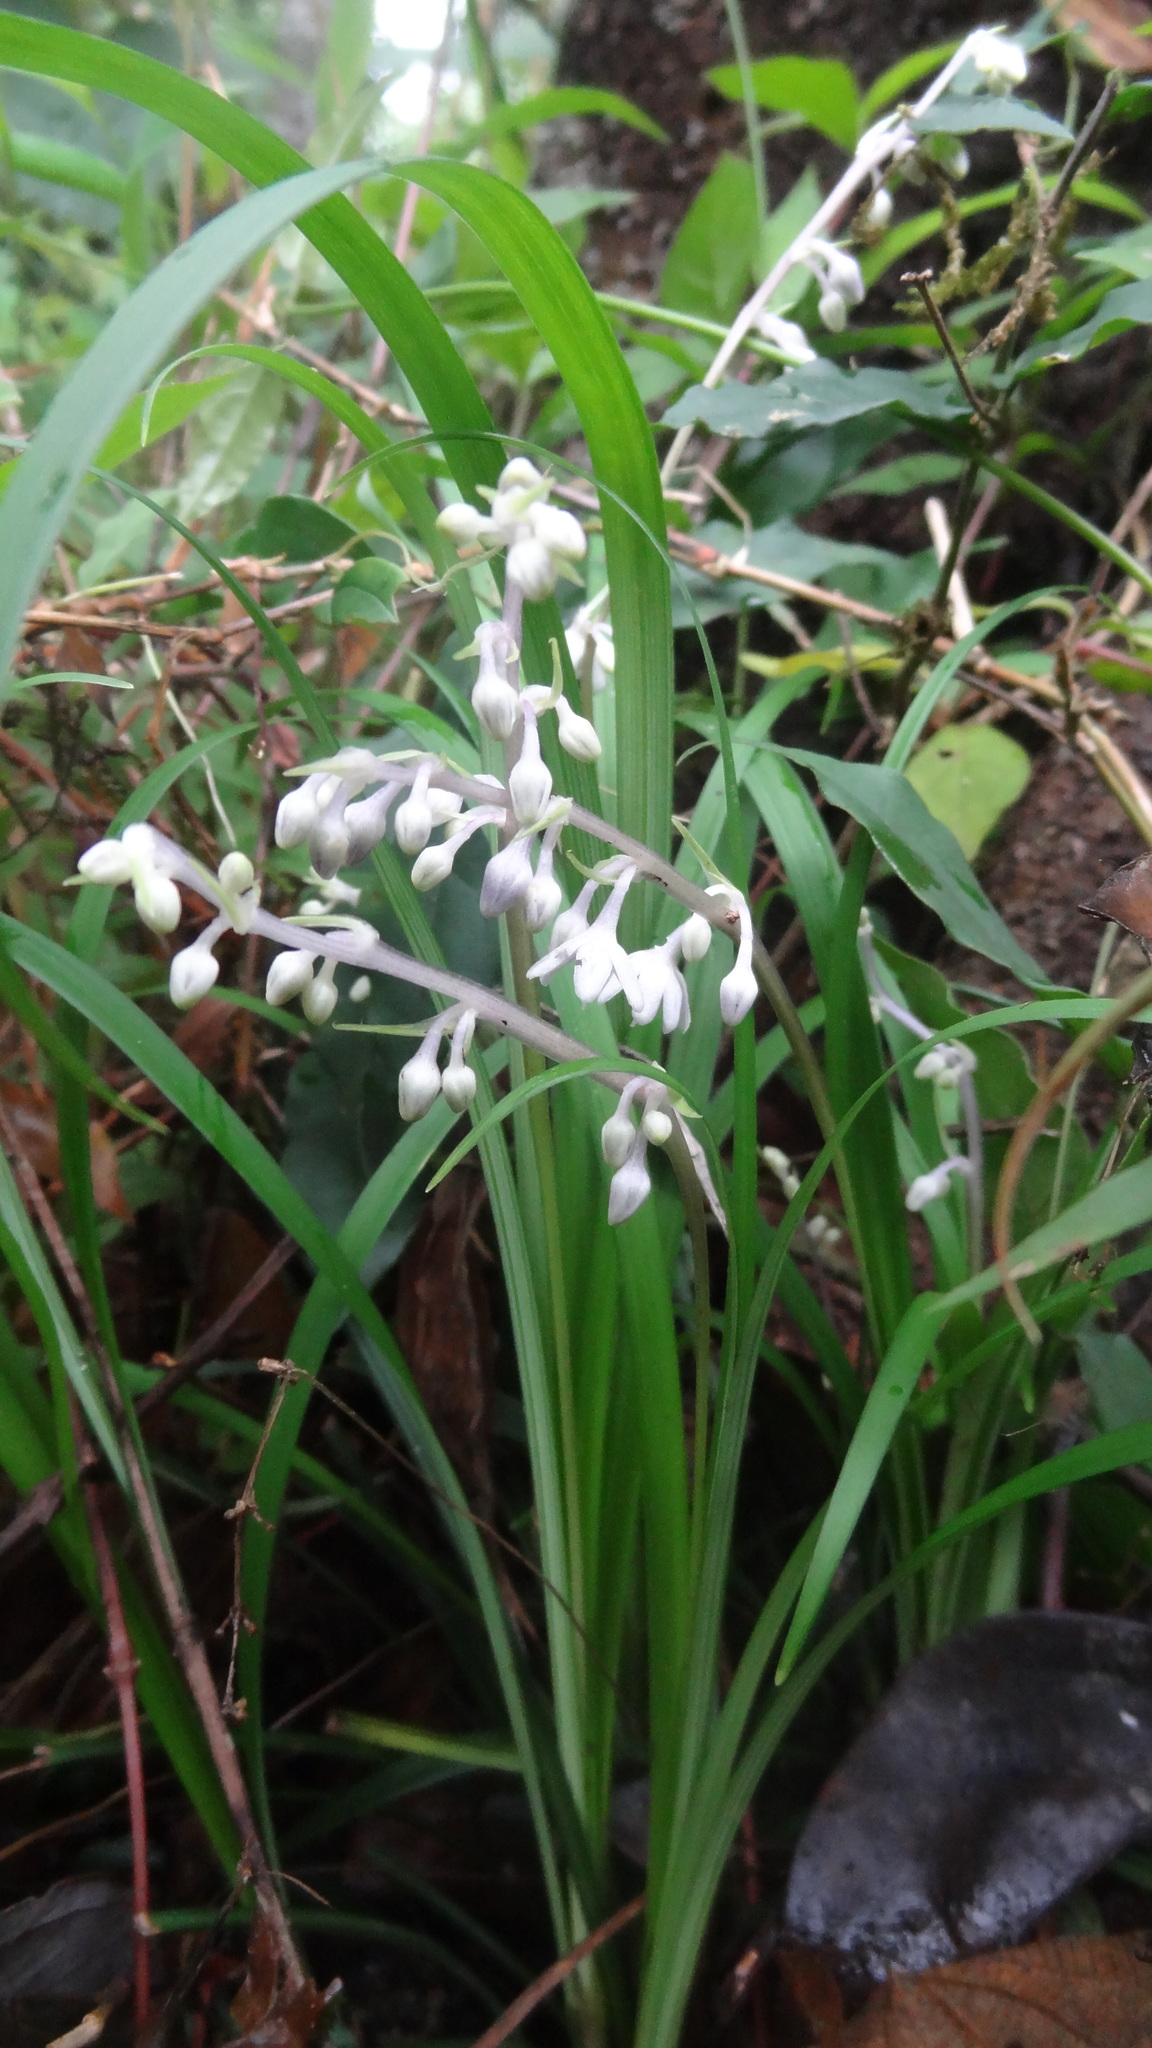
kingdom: Plantae
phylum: Tracheophyta
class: Liliopsida
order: Asparagales
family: Asparagaceae
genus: Ophiopogon
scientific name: Ophiopogon intermedius
